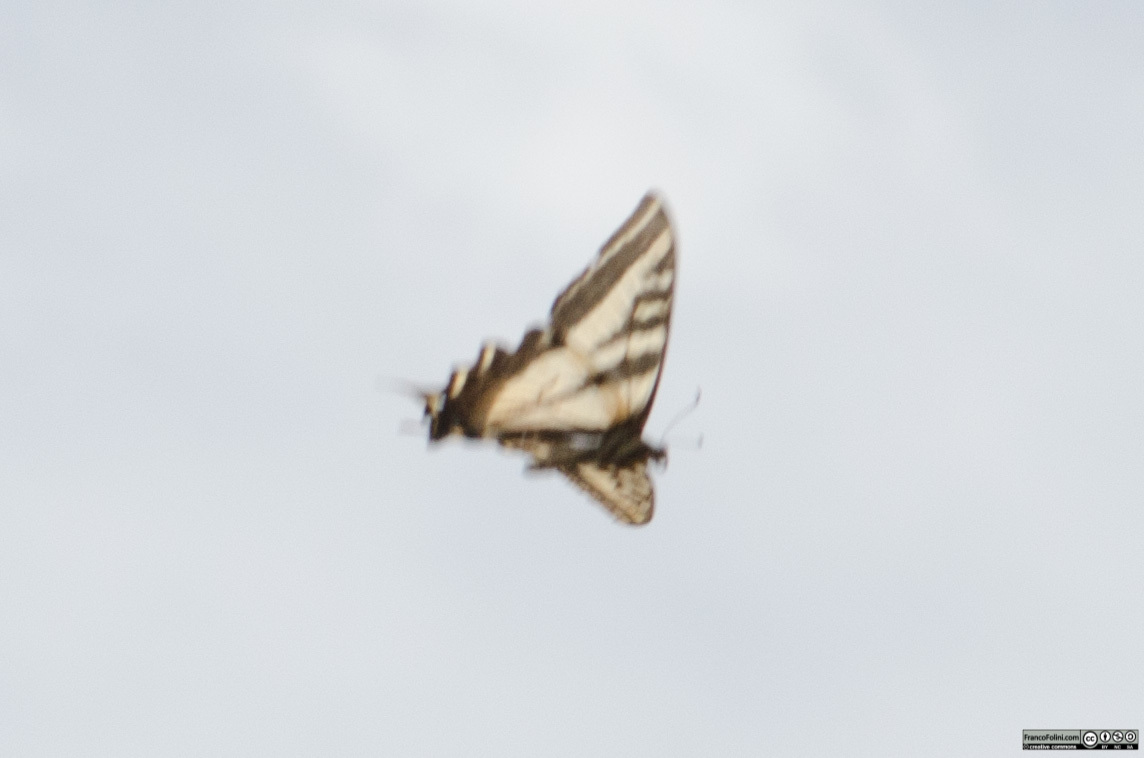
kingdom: Animalia
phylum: Arthropoda
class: Insecta
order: Lepidoptera
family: Papilionidae
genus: Papilio
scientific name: Papilio eurymedon
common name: Pale tiger swallowtail
